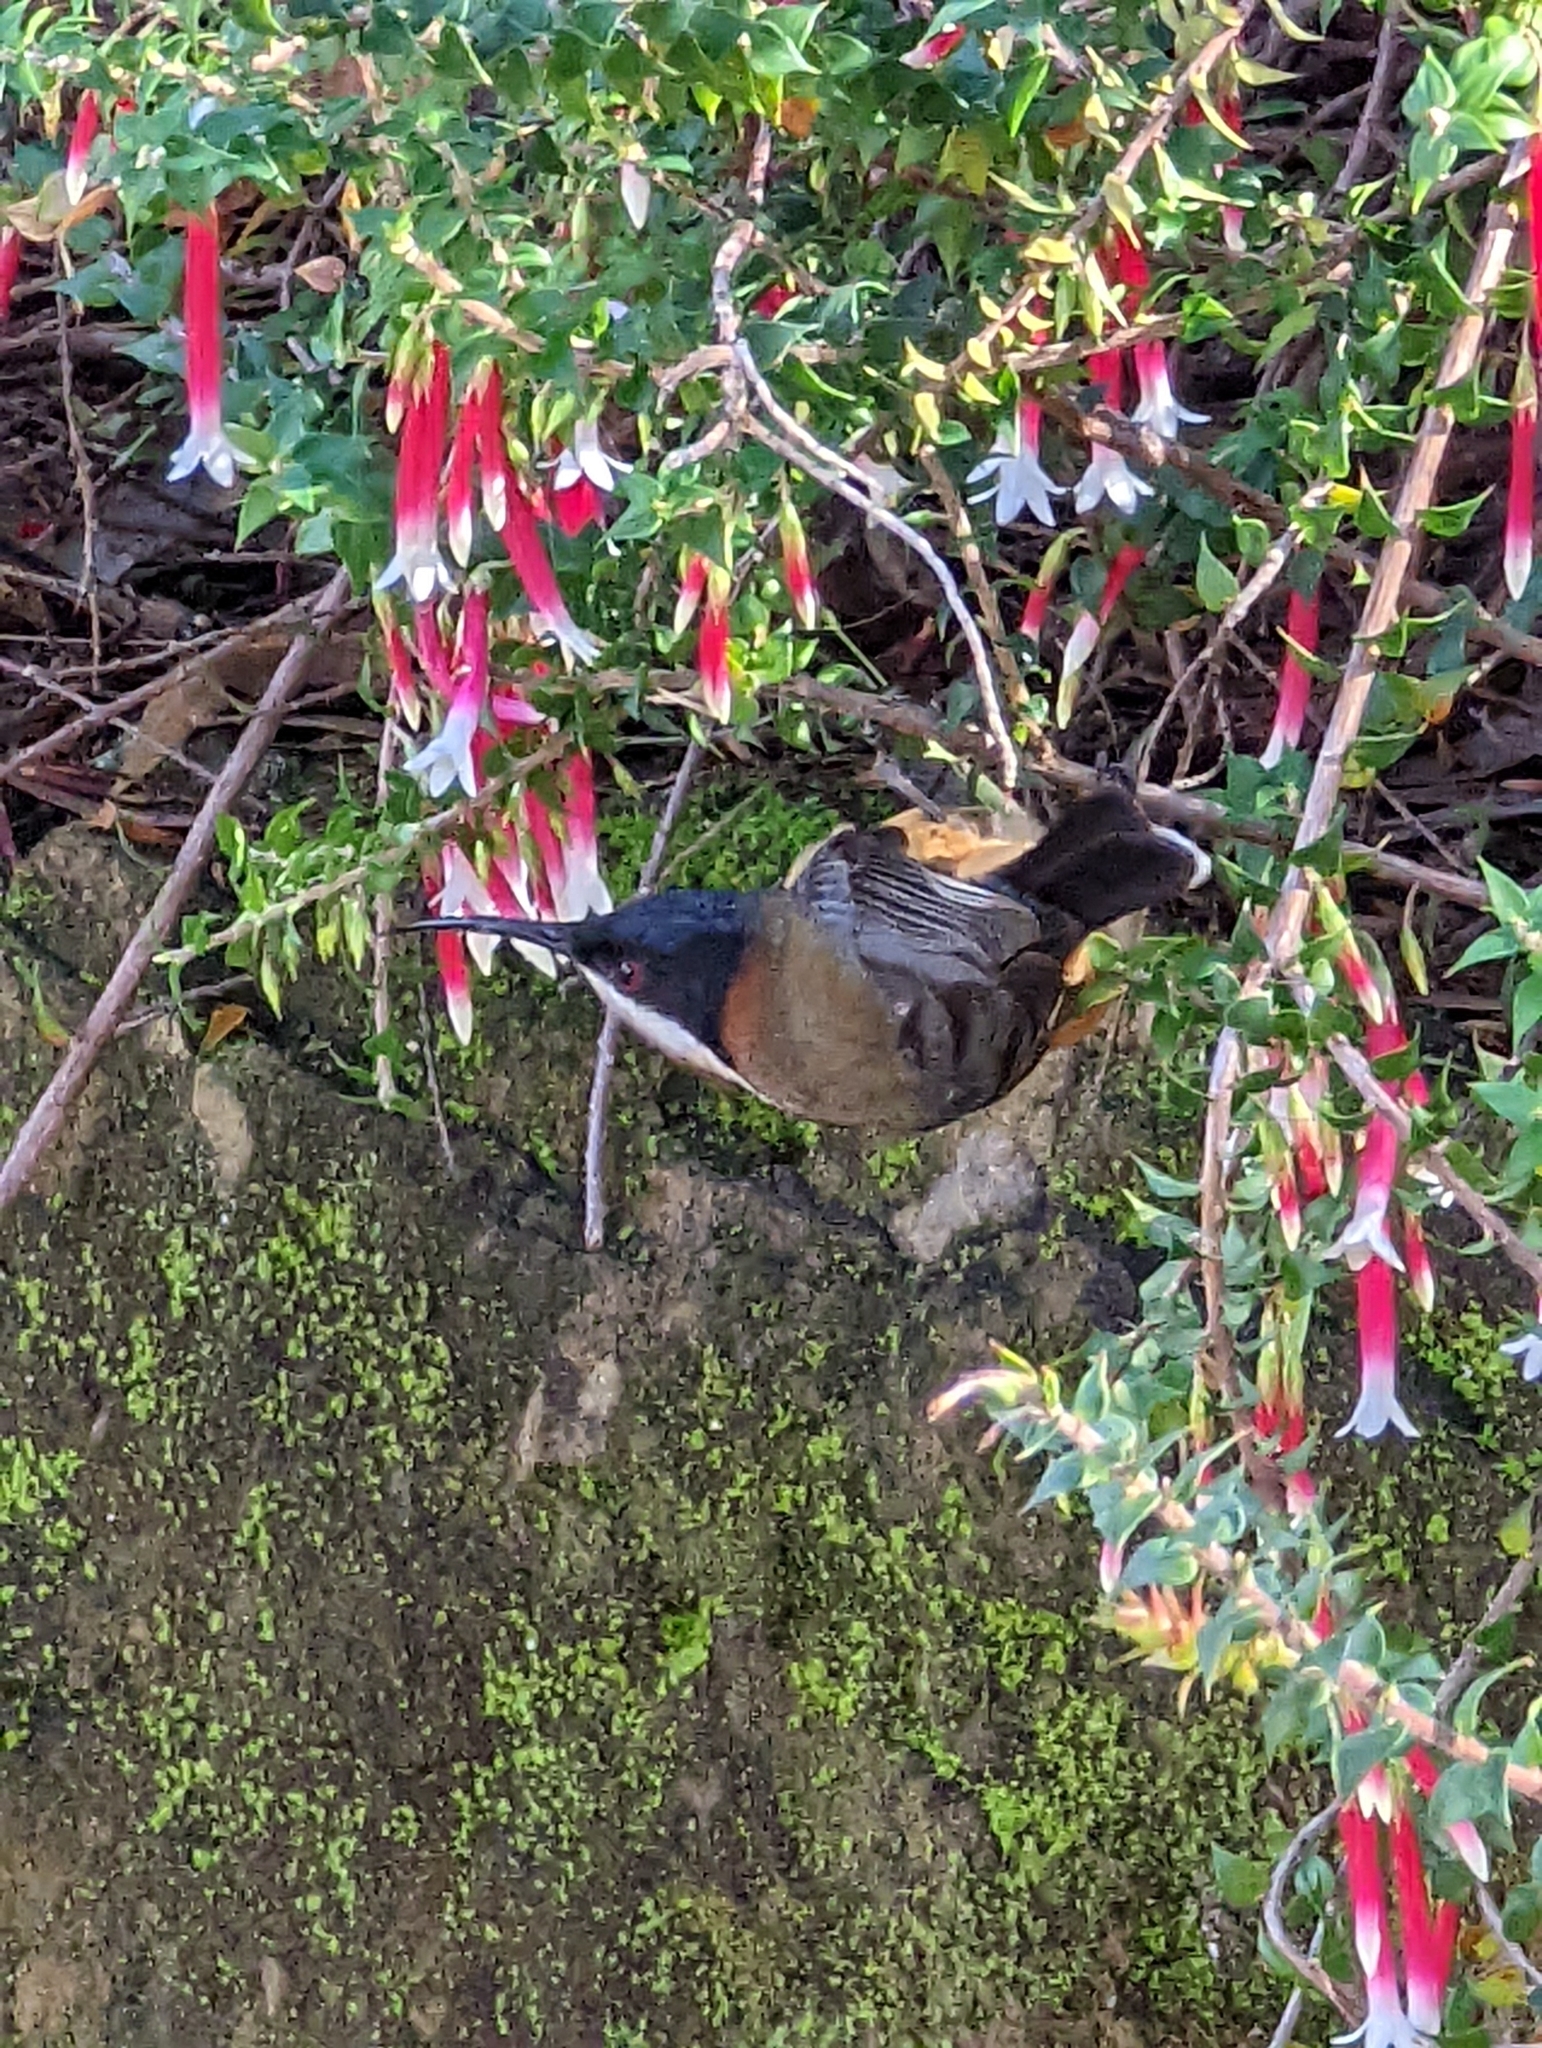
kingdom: Animalia
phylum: Chordata
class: Aves
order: Passeriformes
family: Meliphagidae
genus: Acanthorhynchus
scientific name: Acanthorhynchus tenuirostris
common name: Eastern spinebill
